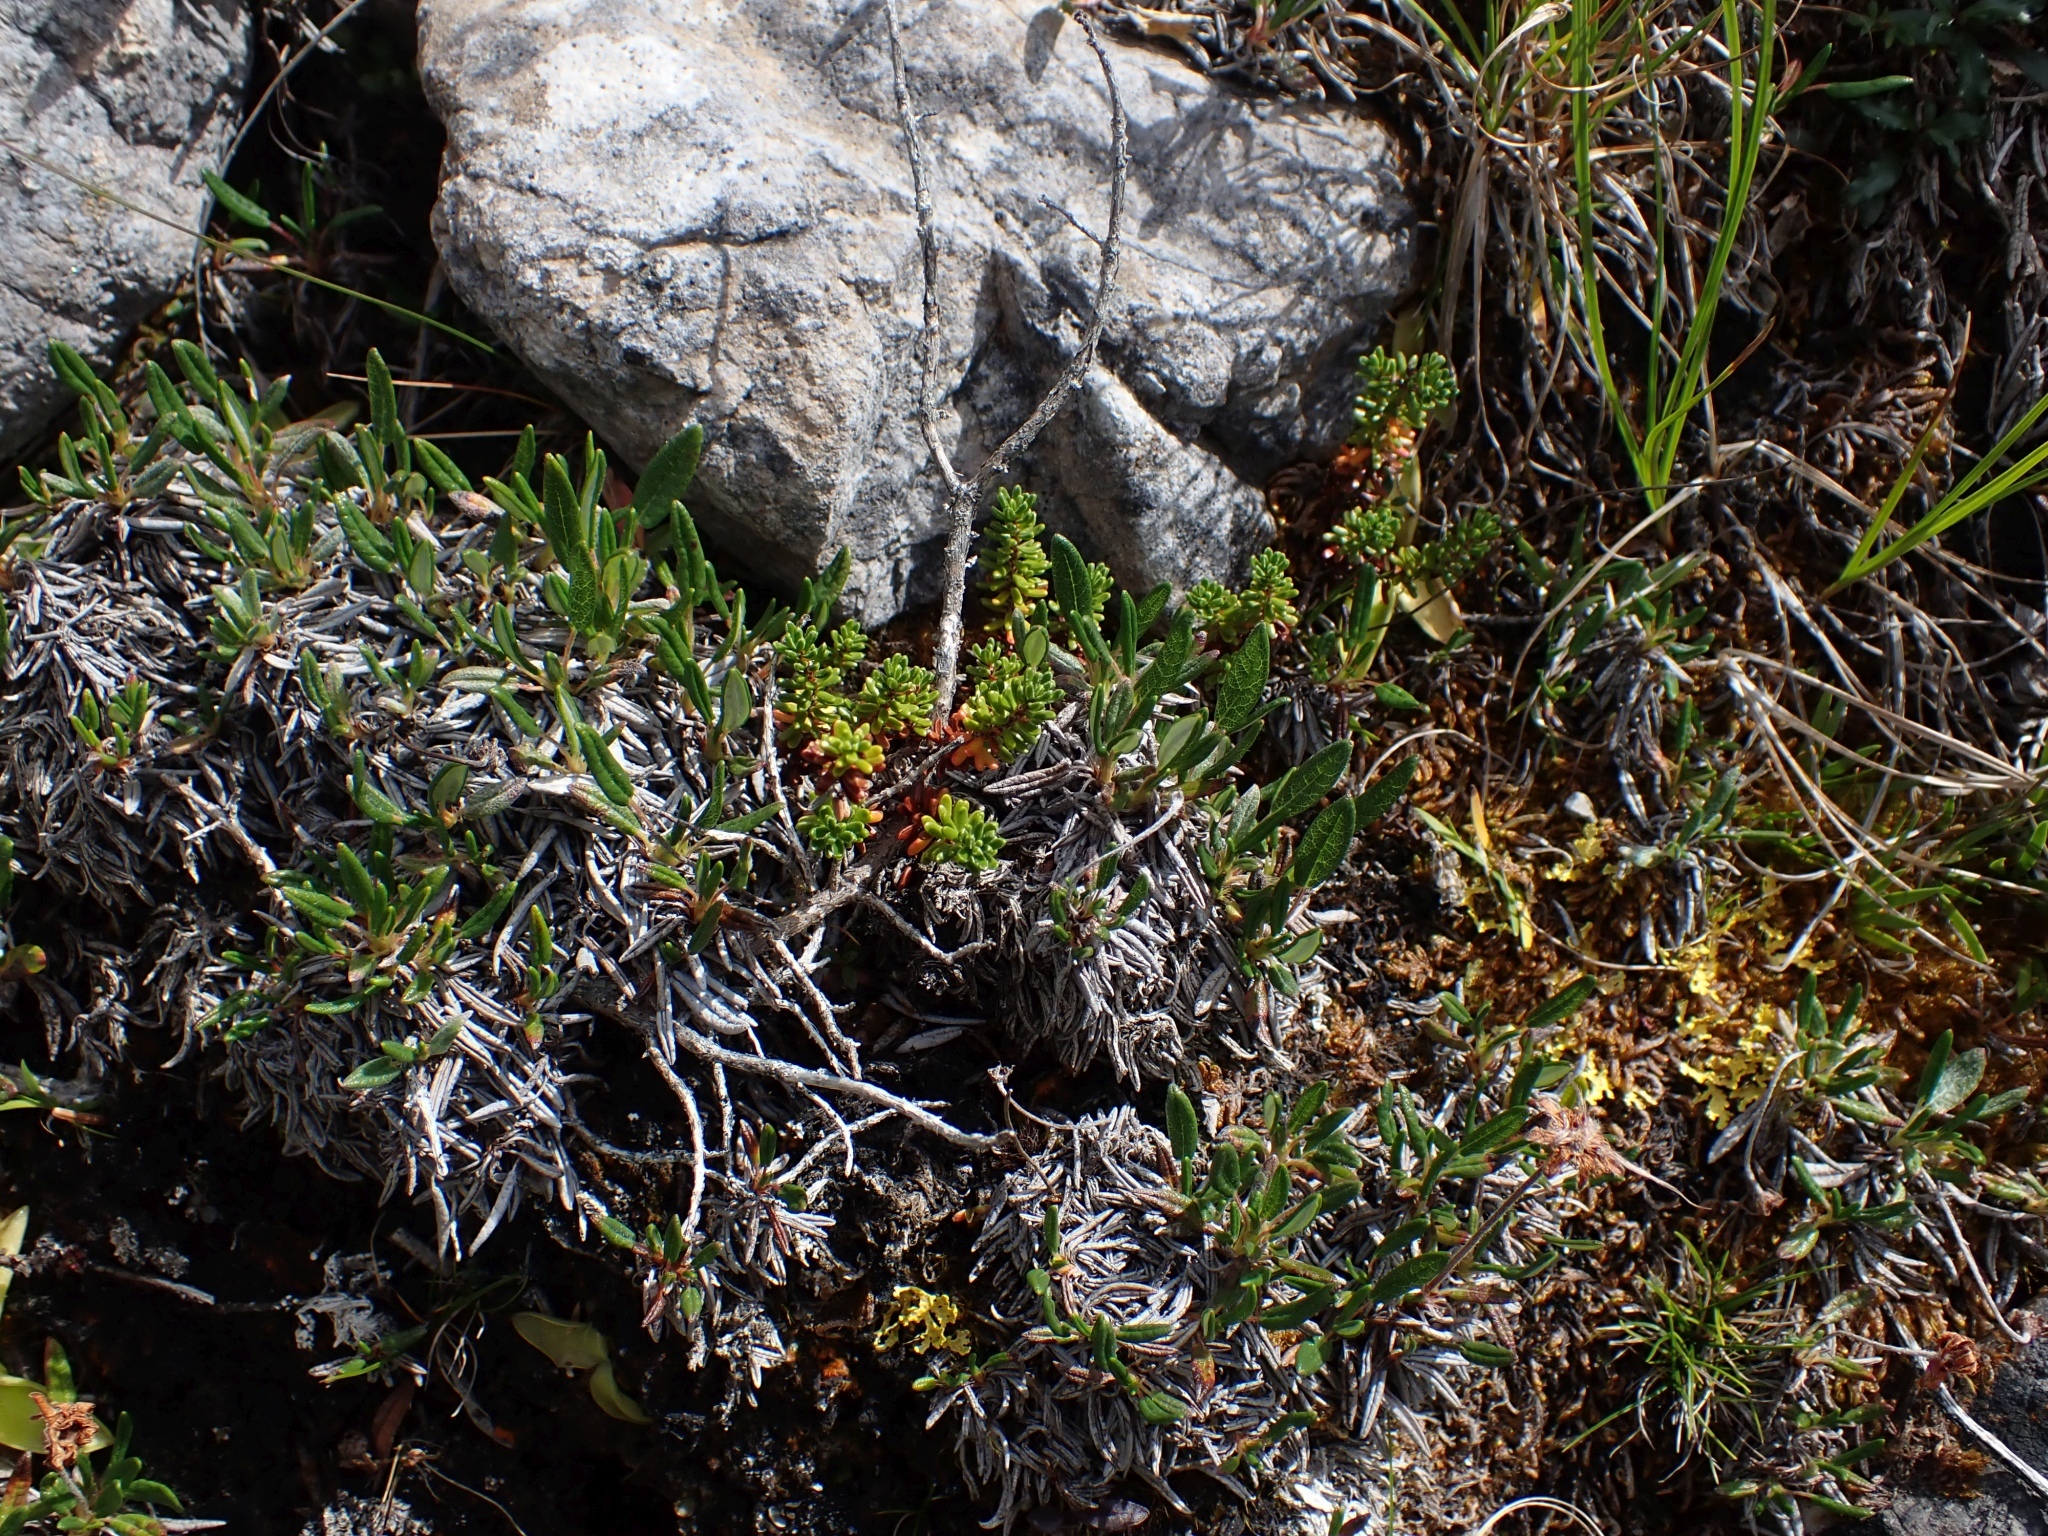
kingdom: Plantae
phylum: Tracheophyta
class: Magnoliopsida
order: Ericales
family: Ericaceae
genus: Empetrum
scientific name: Empetrum nigrum
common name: Black crowberry
